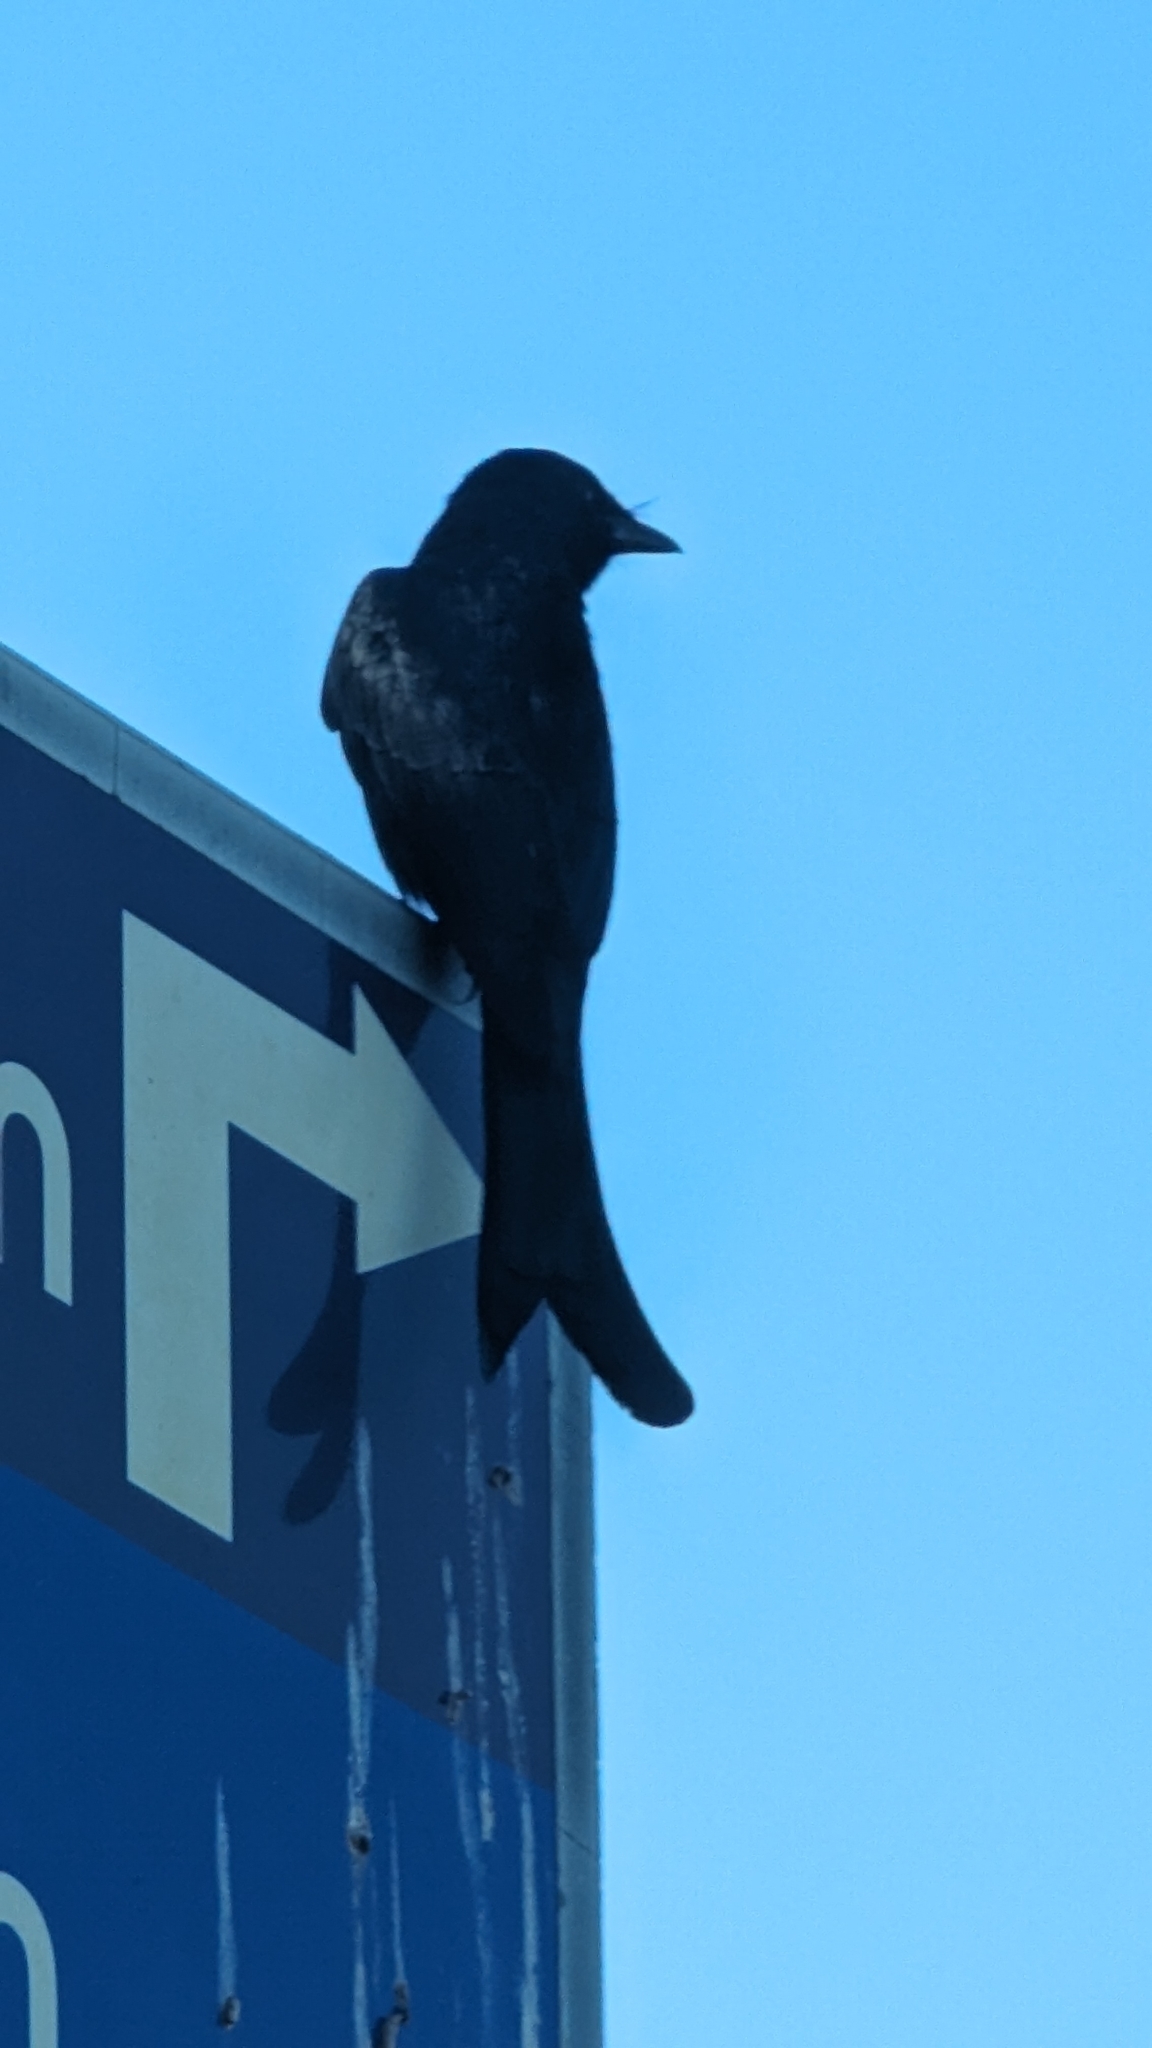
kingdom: Animalia
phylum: Chordata
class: Aves
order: Passeriformes
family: Dicruridae
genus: Dicrurus
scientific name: Dicrurus macrocercus
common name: Black drongo
